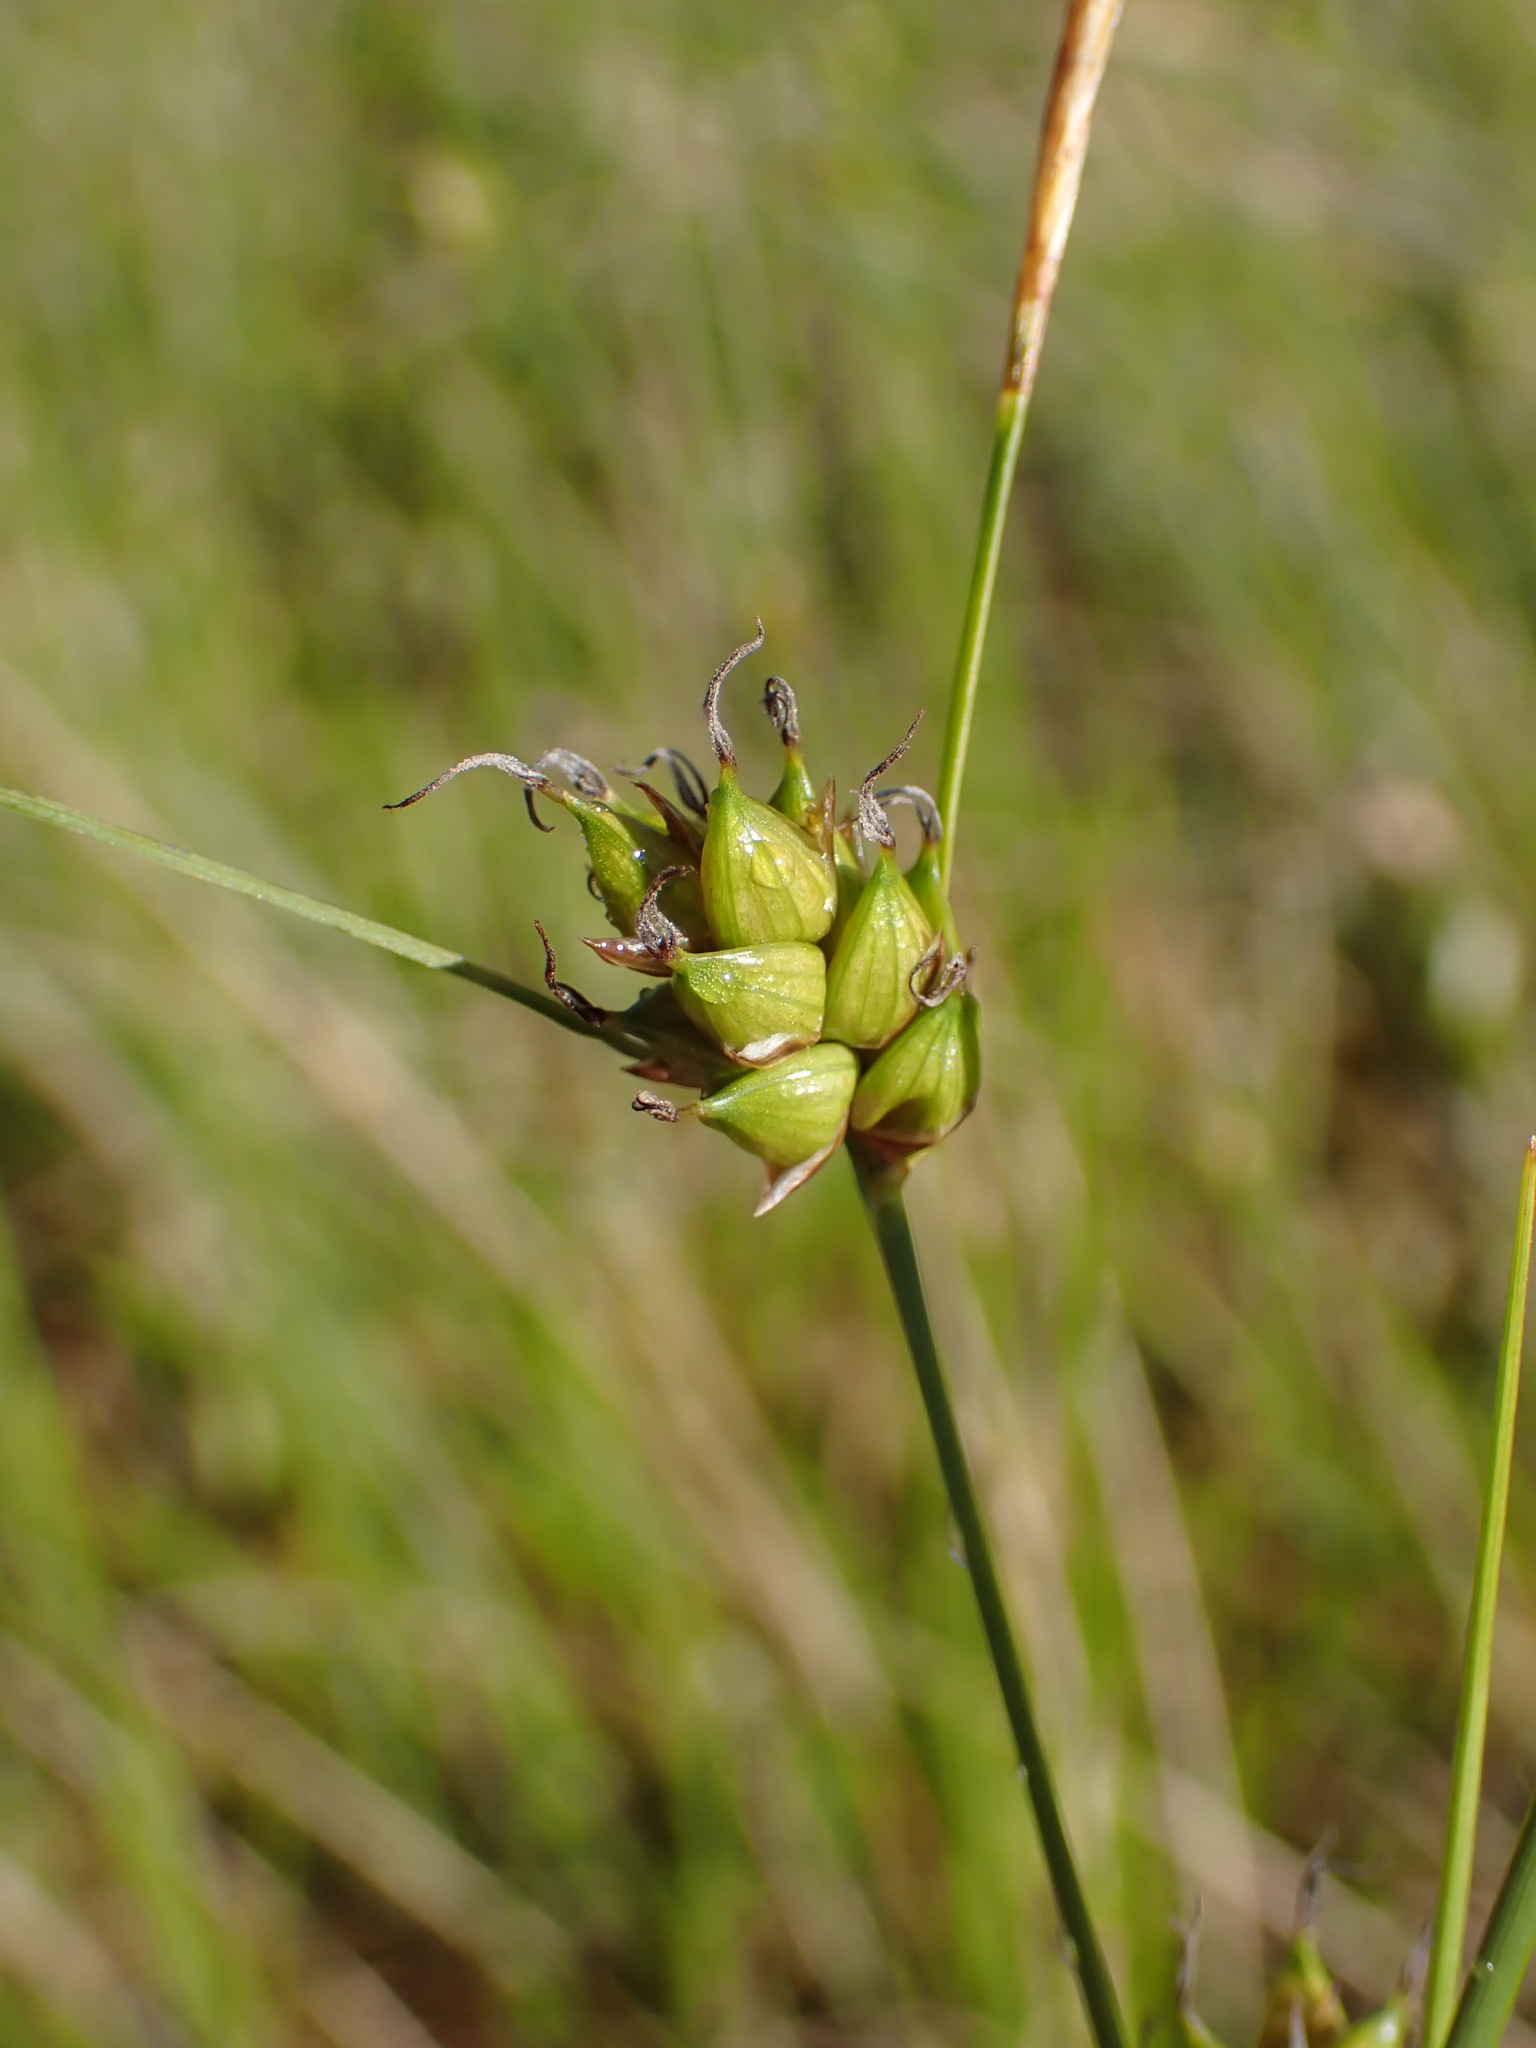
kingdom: Plantae
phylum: Tracheophyta
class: Liliopsida
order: Poales
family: Cyperaceae
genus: Carex
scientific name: Carex oligosperma
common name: Few-seed sedge
